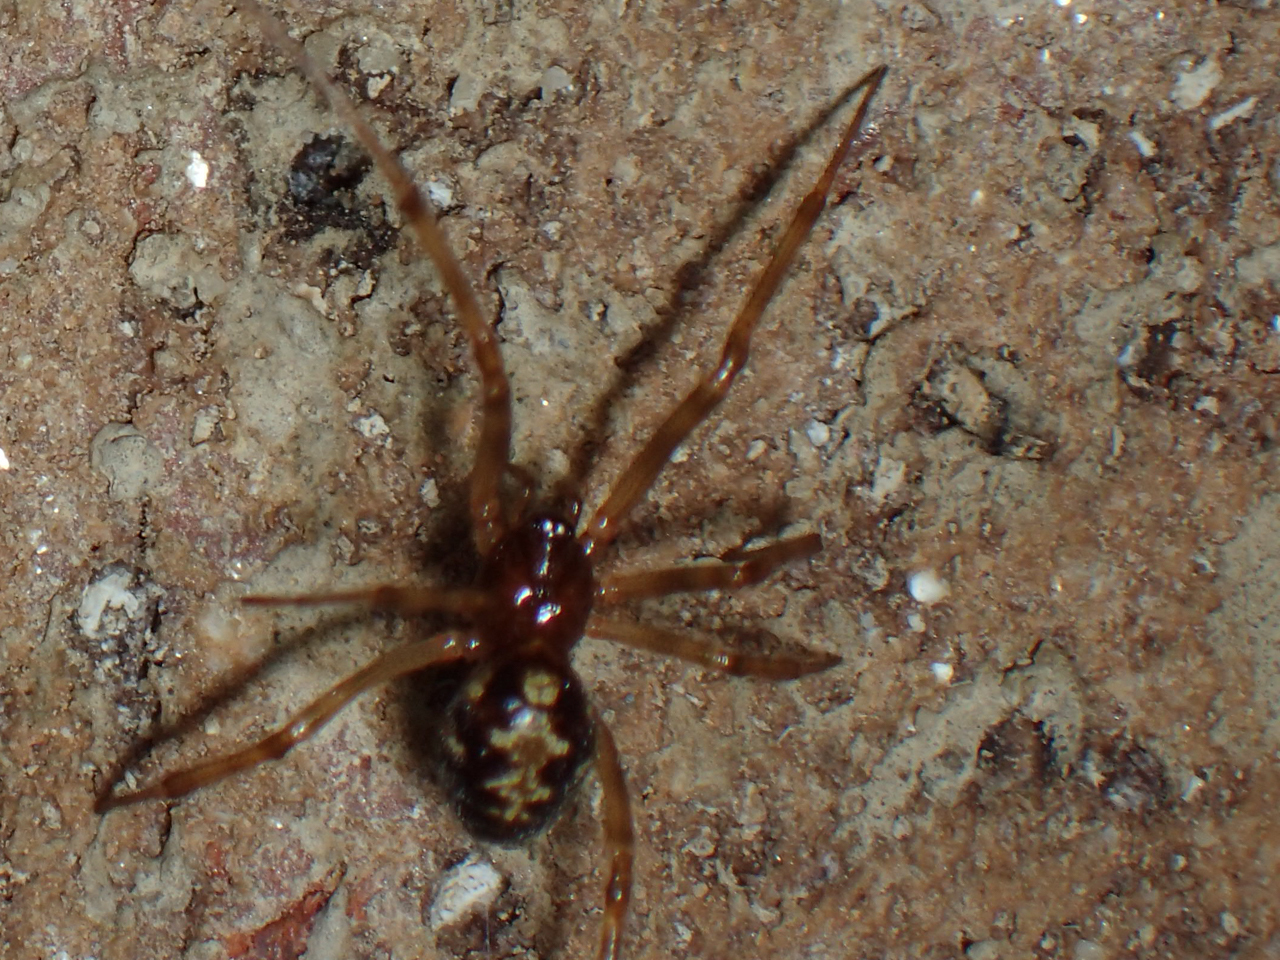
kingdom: Animalia
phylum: Arthropoda
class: Arachnida
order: Araneae
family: Theridiidae
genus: Steatoda
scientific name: Steatoda triangulosa
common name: Triangulate bud spider
